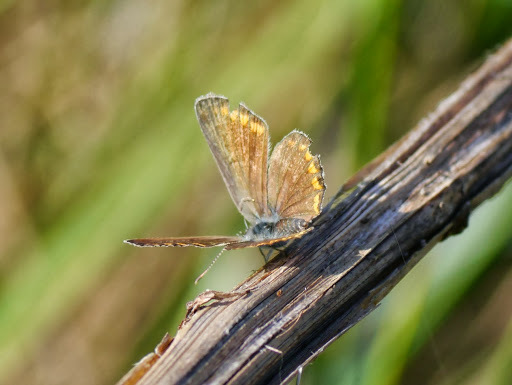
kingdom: Animalia
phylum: Arthropoda
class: Insecta
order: Lepidoptera
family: Lycaenidae
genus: Polyommatus
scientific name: Polyommatus icarus
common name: Common blue
